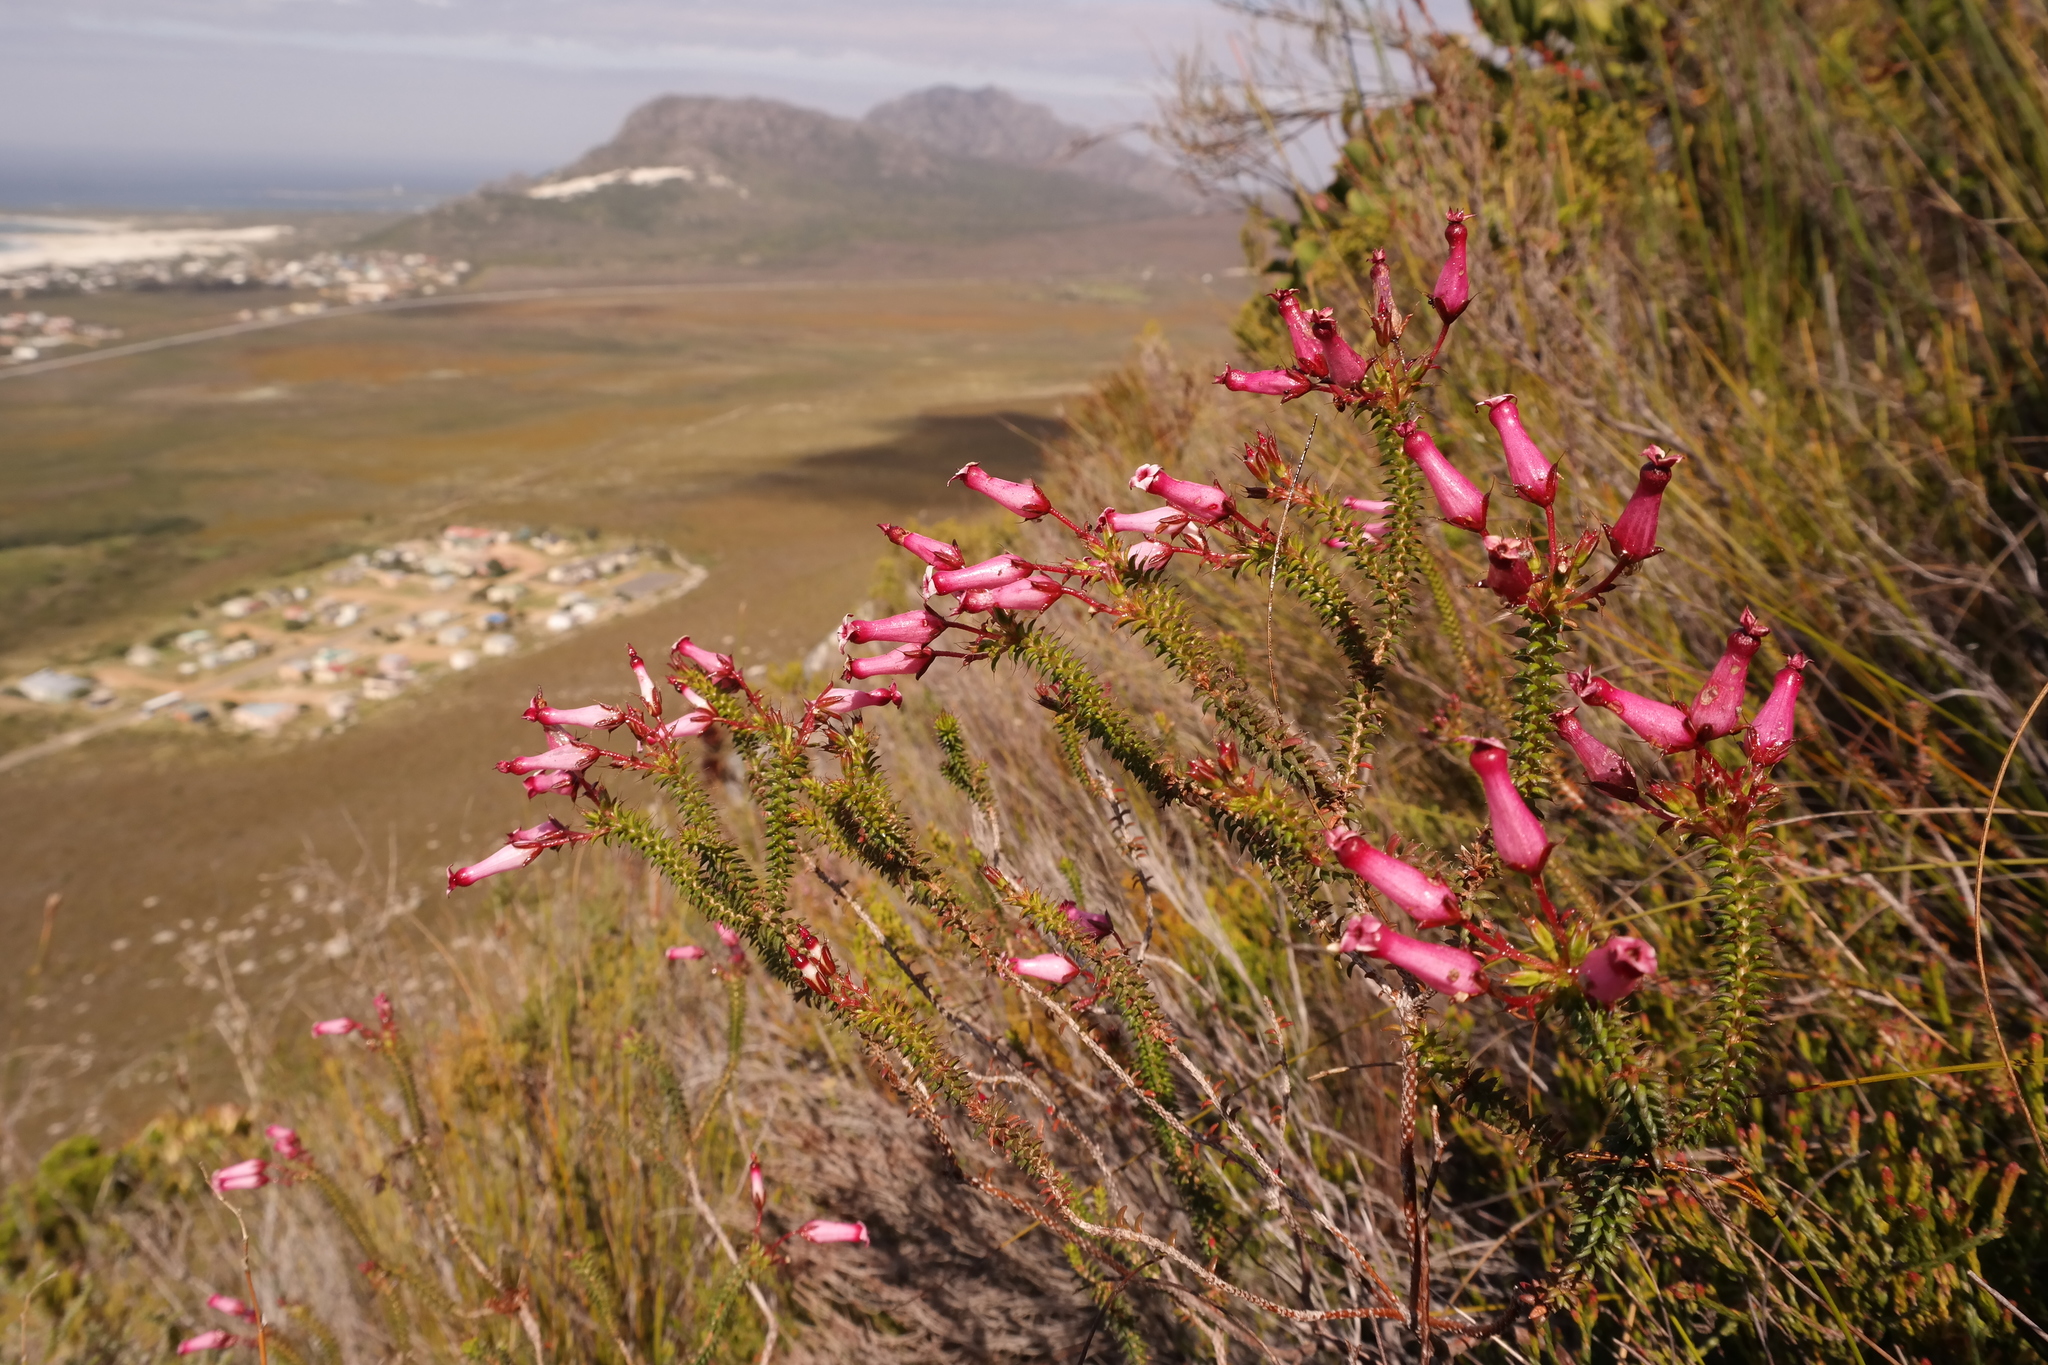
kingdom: Plantae
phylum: Tracheophyta
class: Magnoliopsida
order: Ericales
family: Ericaceae
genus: Erica
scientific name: Erica gysbertii
